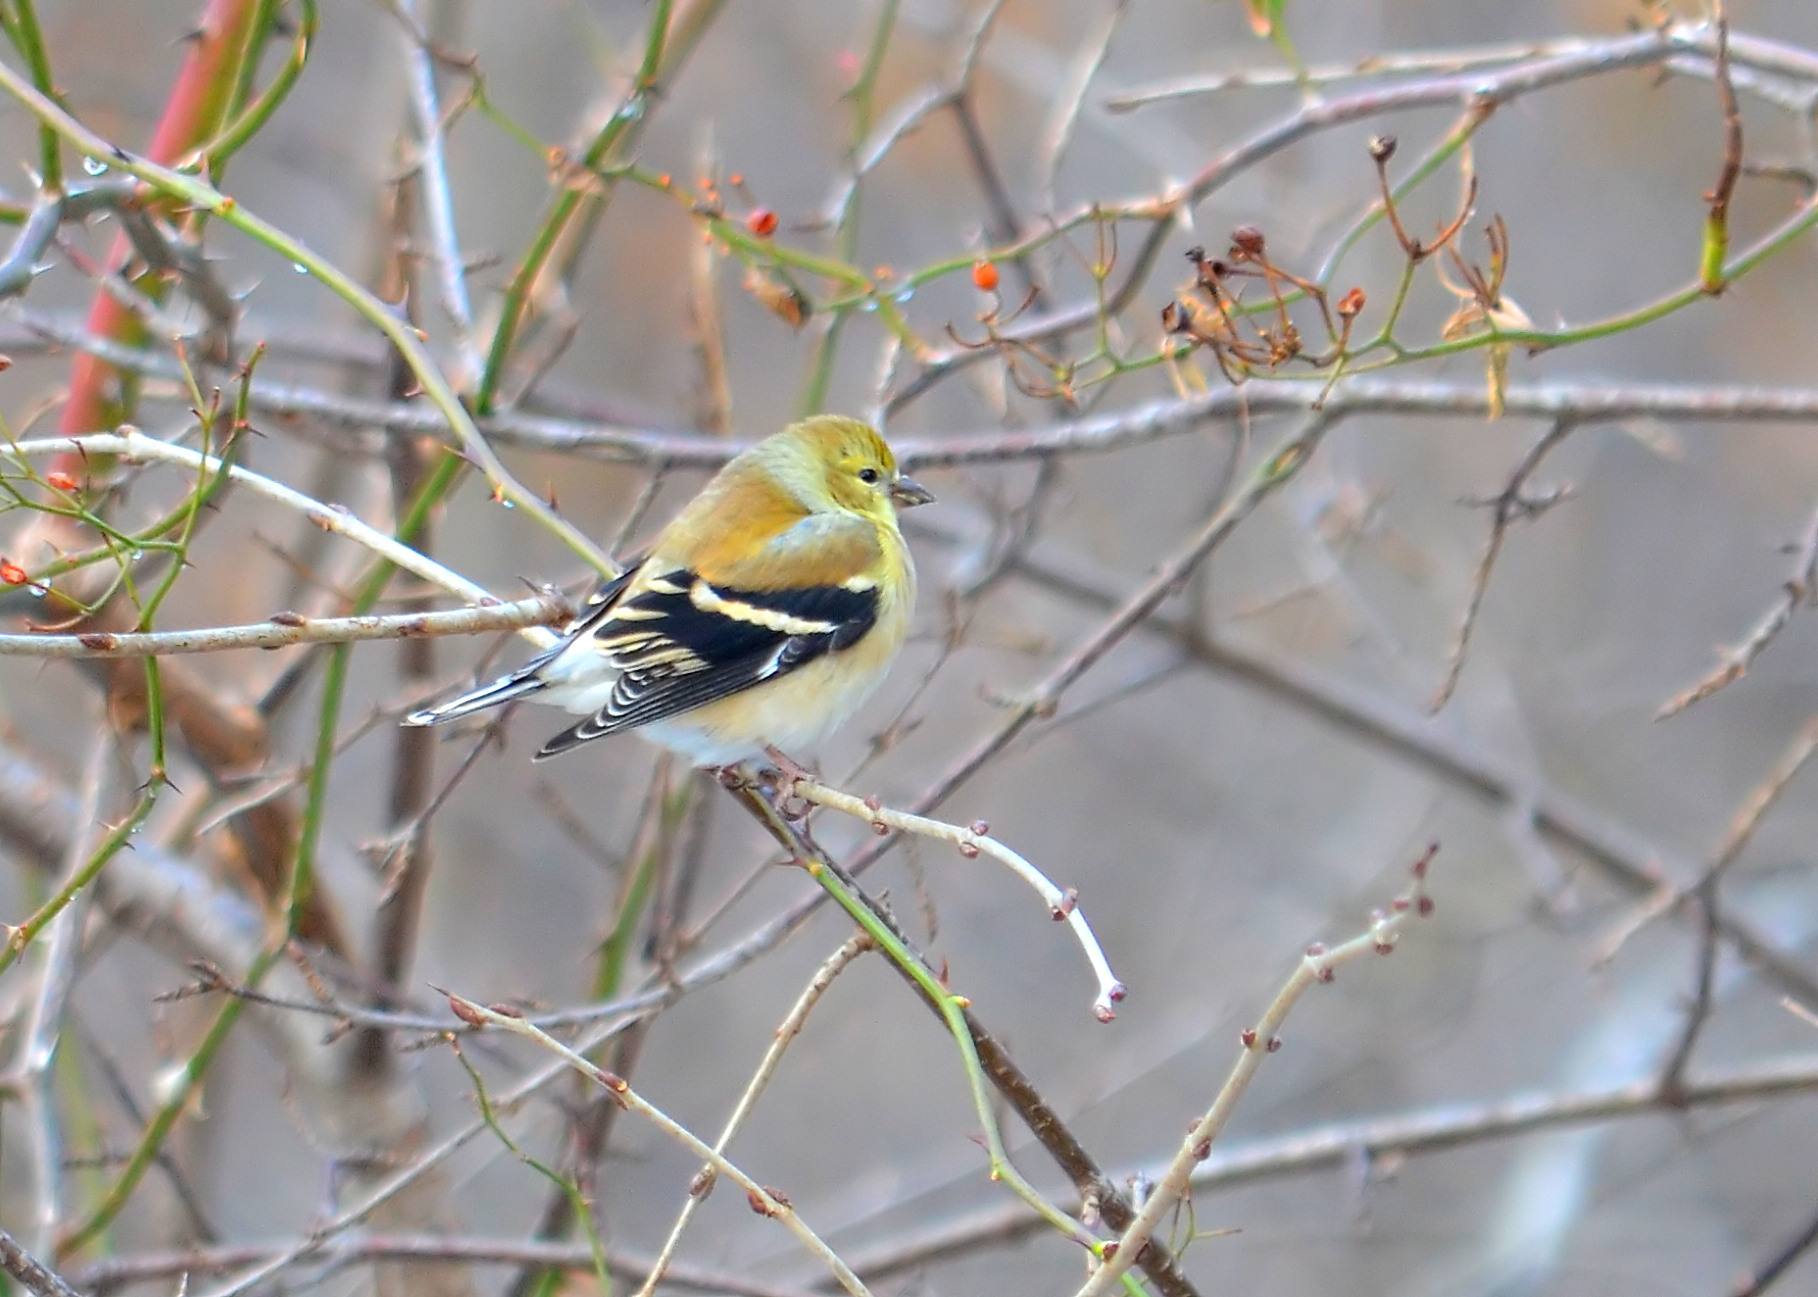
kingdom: Animalia
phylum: Chordata
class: Aves
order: Passeriformes
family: Fringillidae
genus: Spinus
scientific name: Spinus tristis
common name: American goldfinch
